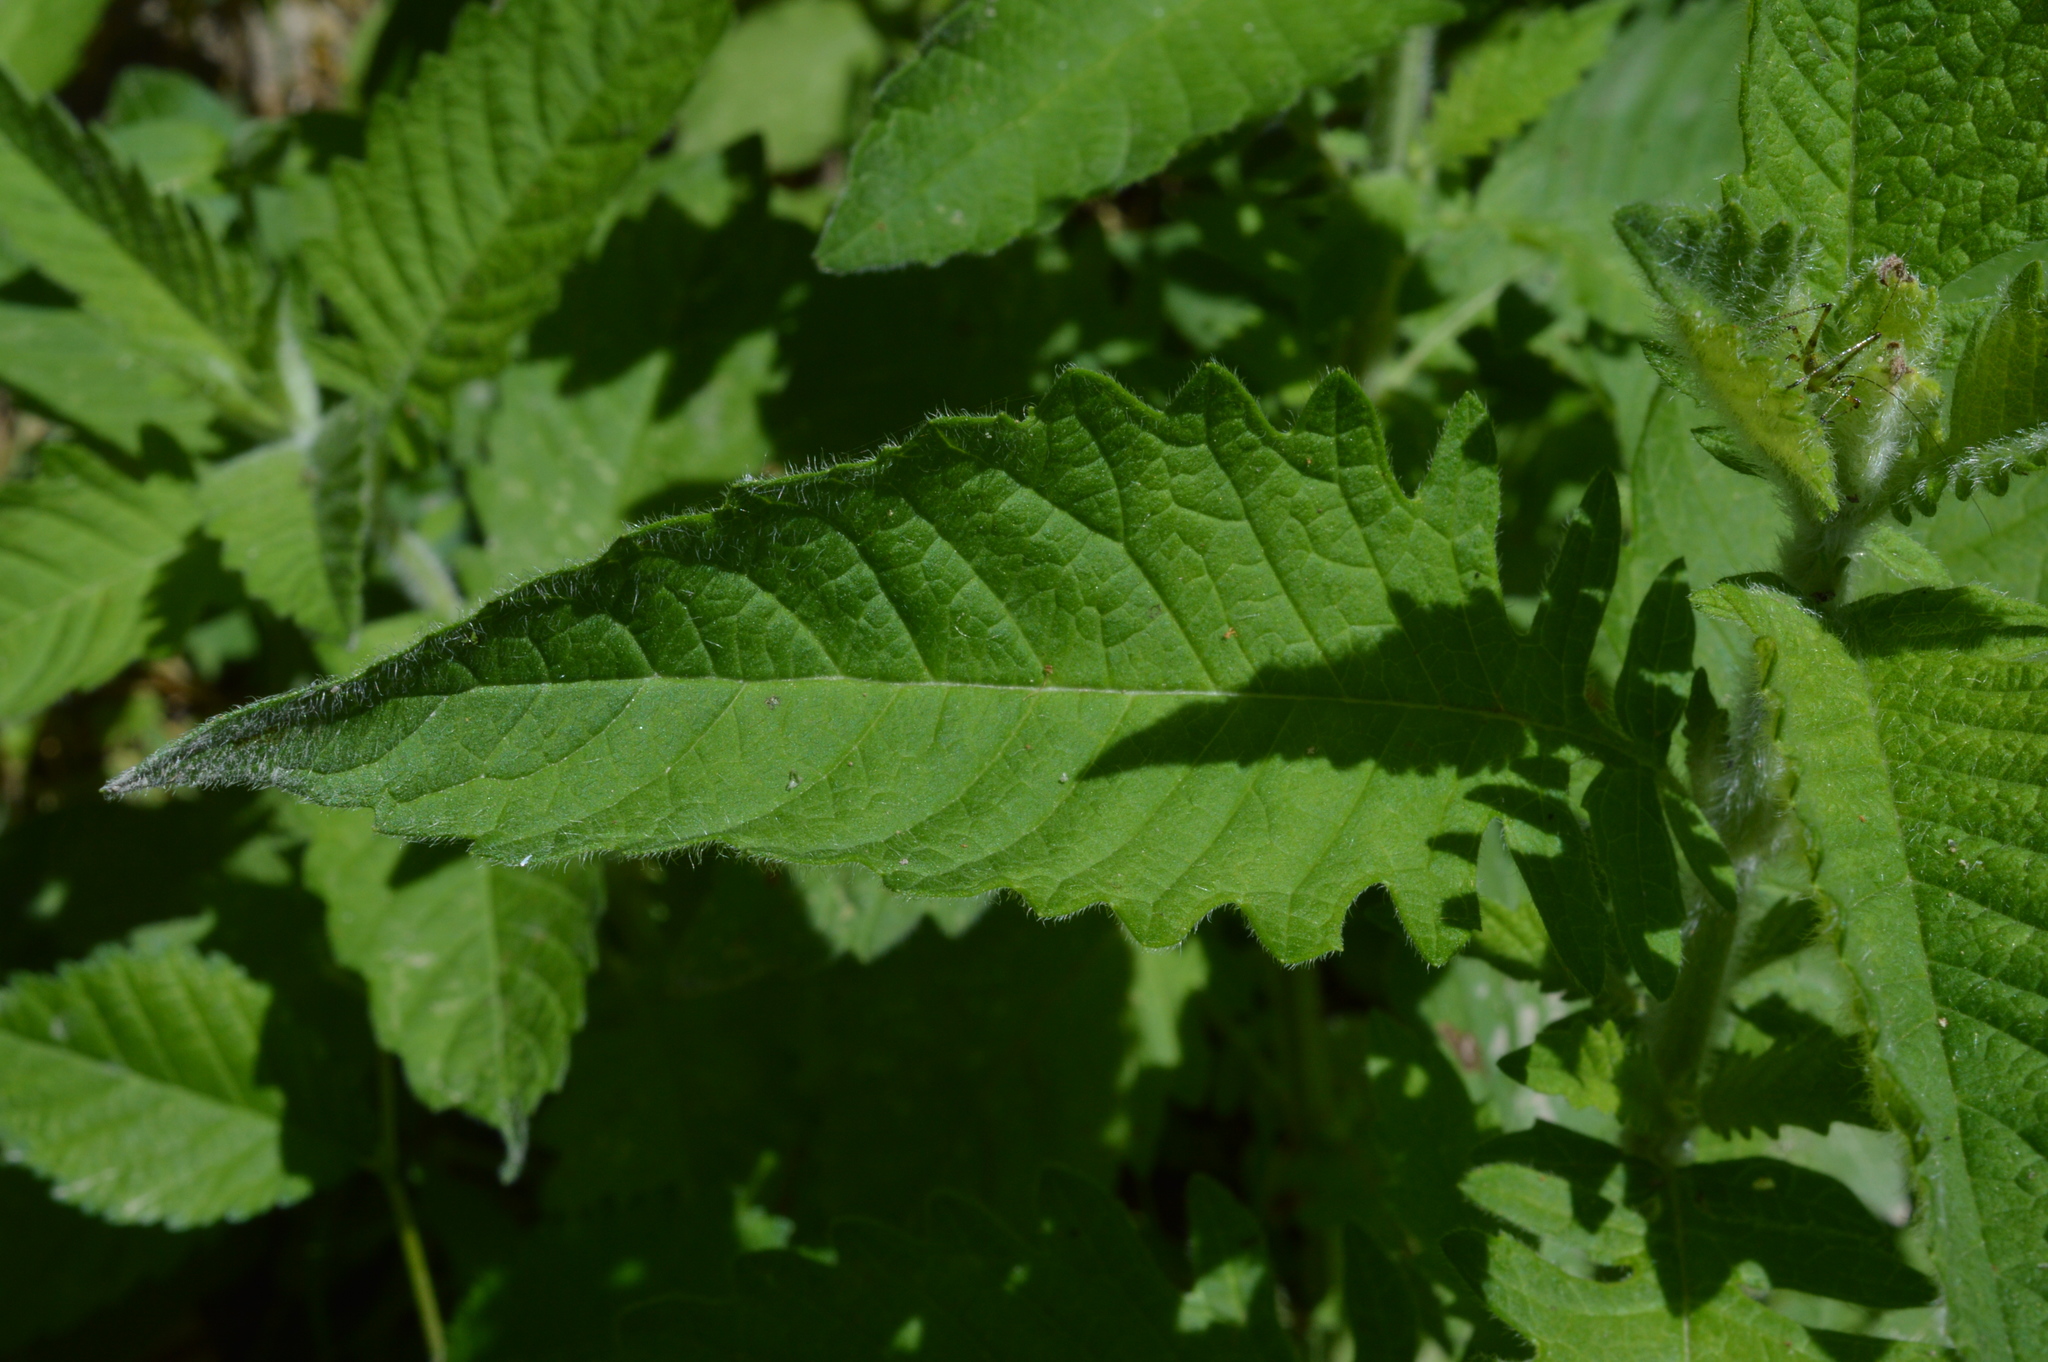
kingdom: Plantae
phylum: Tracheophyta
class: Magnoliopsida
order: Lamiales
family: Lamiaceae
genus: Lycopus
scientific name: Lycopus europaeus
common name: European bugleweed
